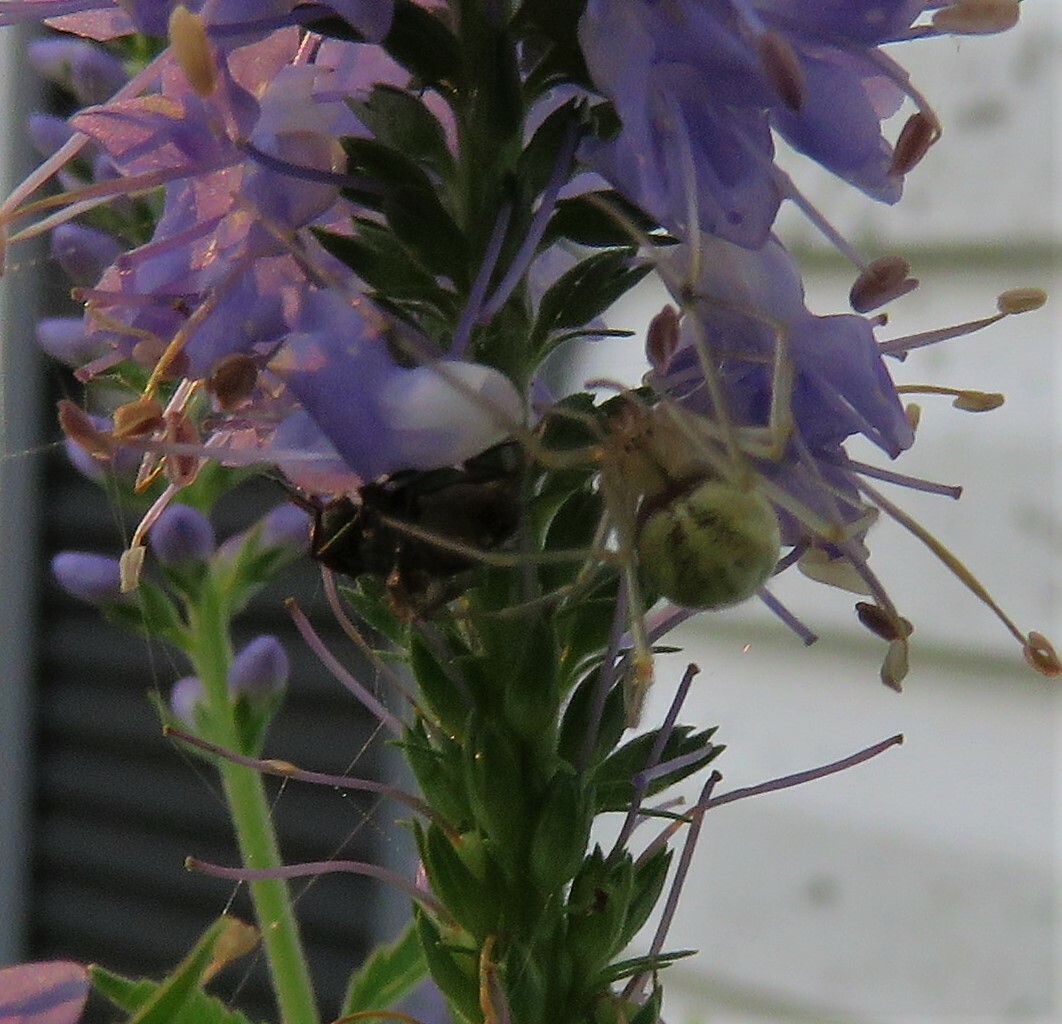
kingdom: Animalia
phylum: Arthropoda
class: Arachnida
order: Araneae
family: Theridiidae
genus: Enoplognatha
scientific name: Enoplognatha ovata
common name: Common candy-striped spider
